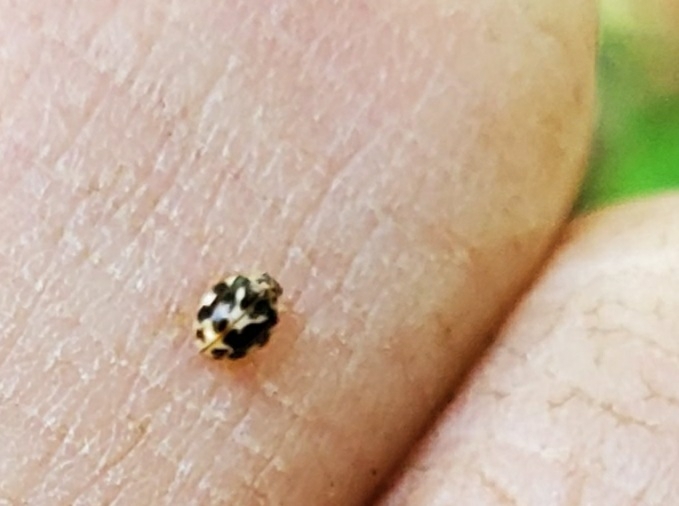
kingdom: Animalia
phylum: Arthropoda
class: Insecta
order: Coleoptera
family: Coccinellidae
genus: Psyllobora
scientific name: Psyllobora vigintimaculata
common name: Ladybird beetle
